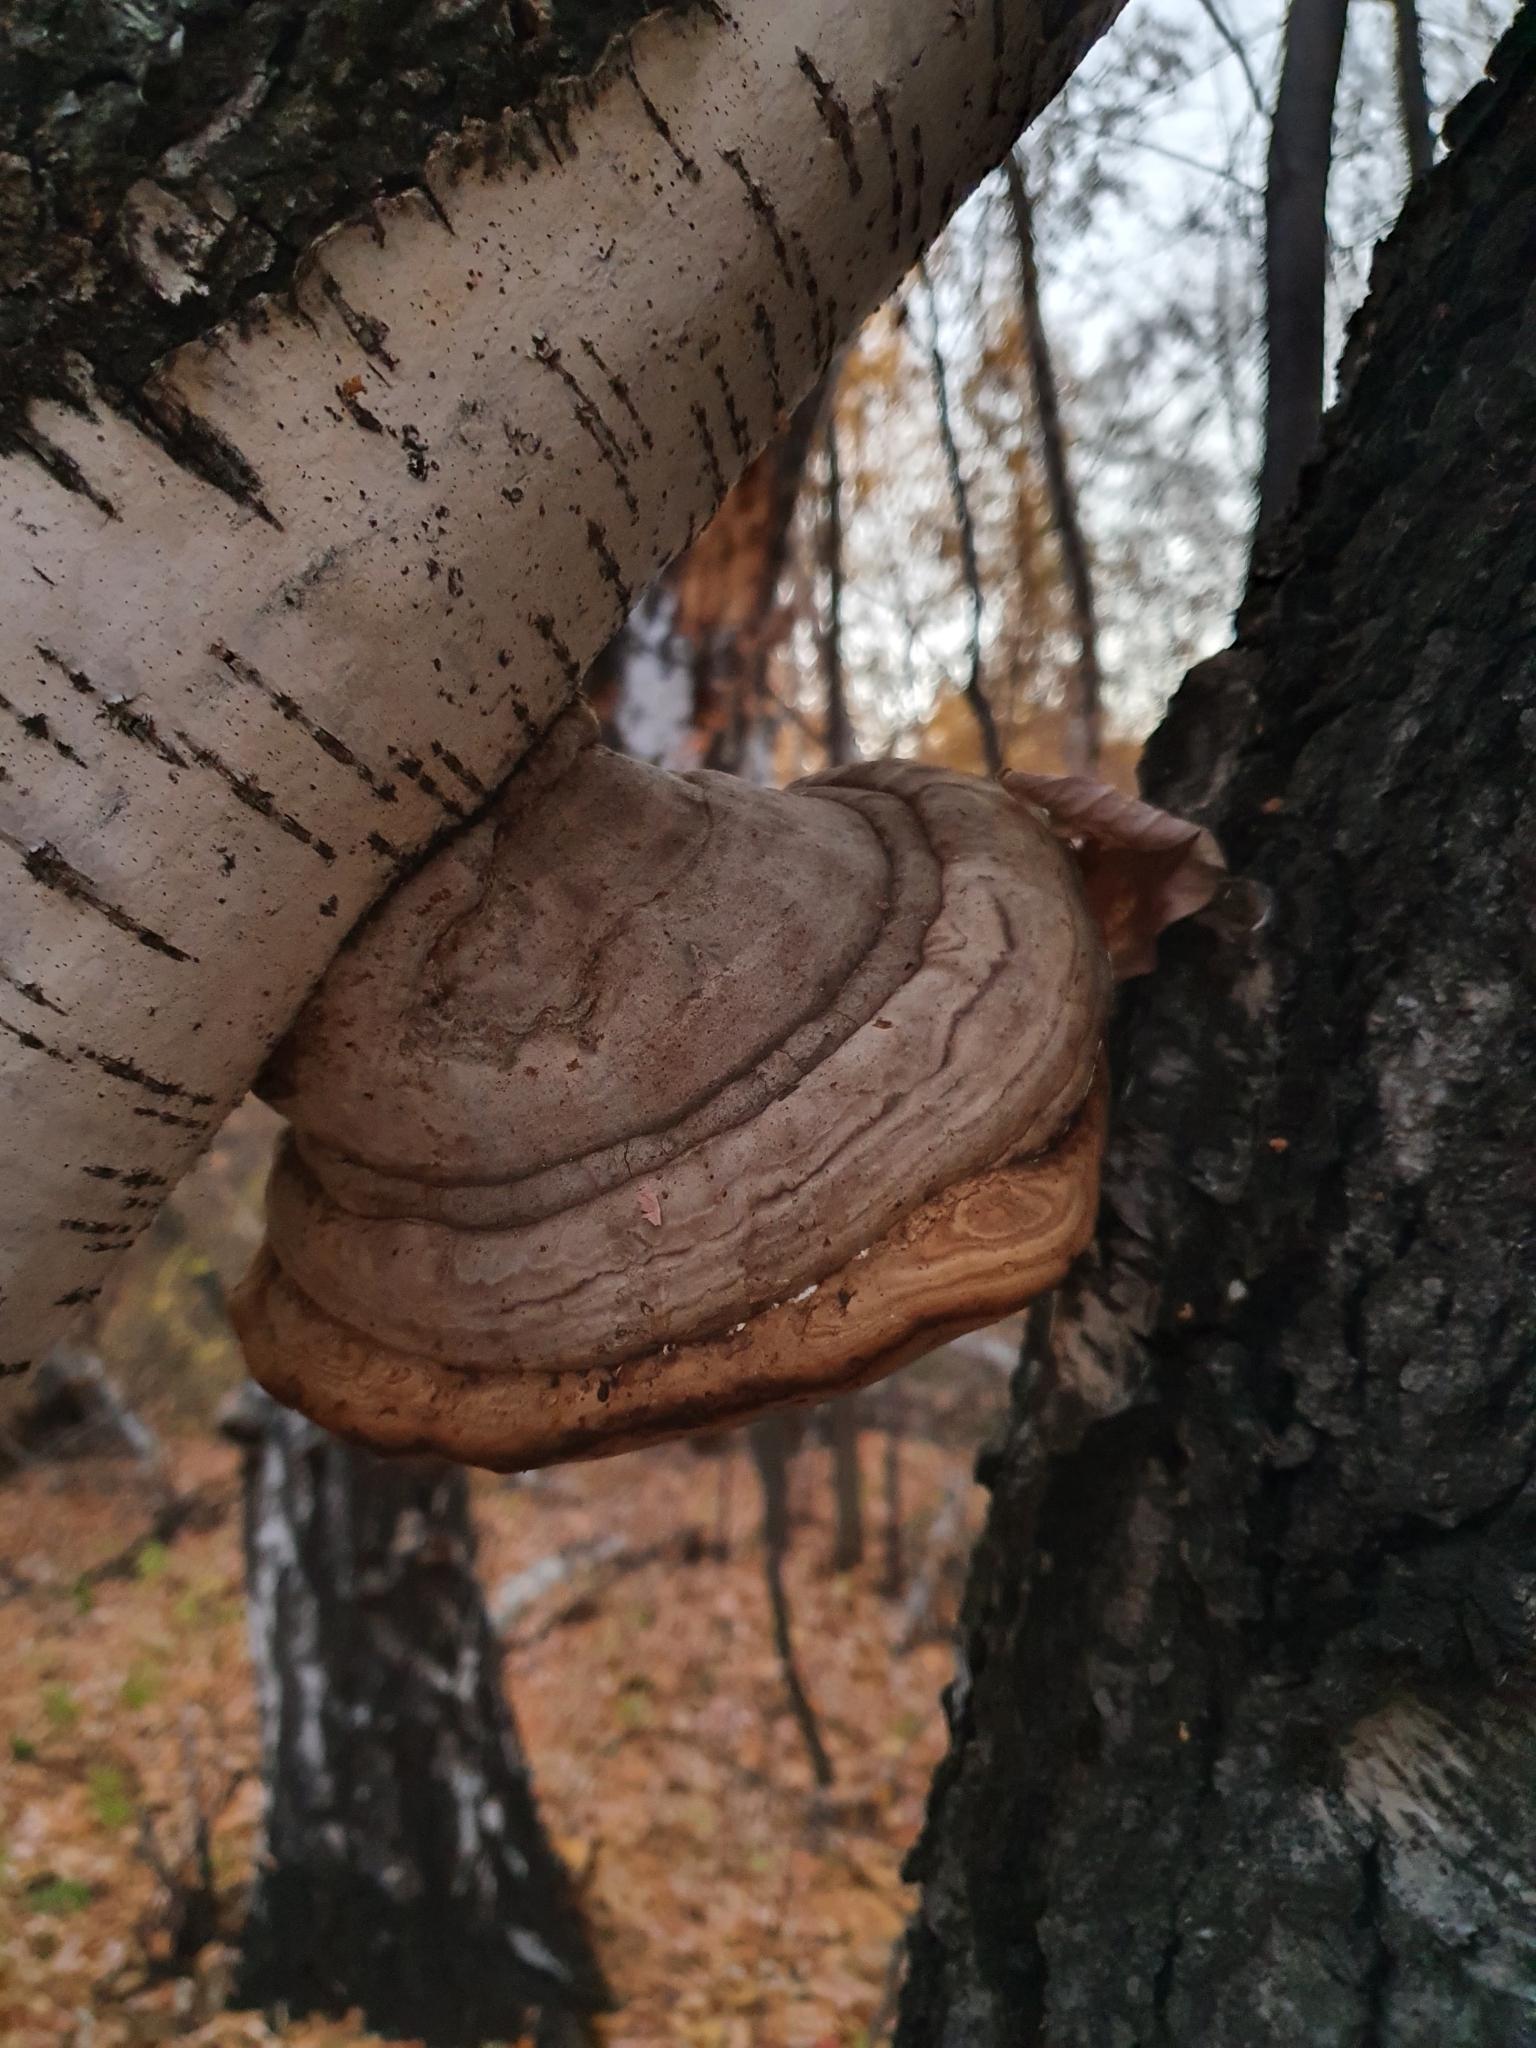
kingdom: Fungi
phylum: Basidiomycota
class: Agaricomycetes
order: Polyporales
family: Polyporaceae
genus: Fomes
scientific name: Fomes fomentarius
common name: Hoof fungus
